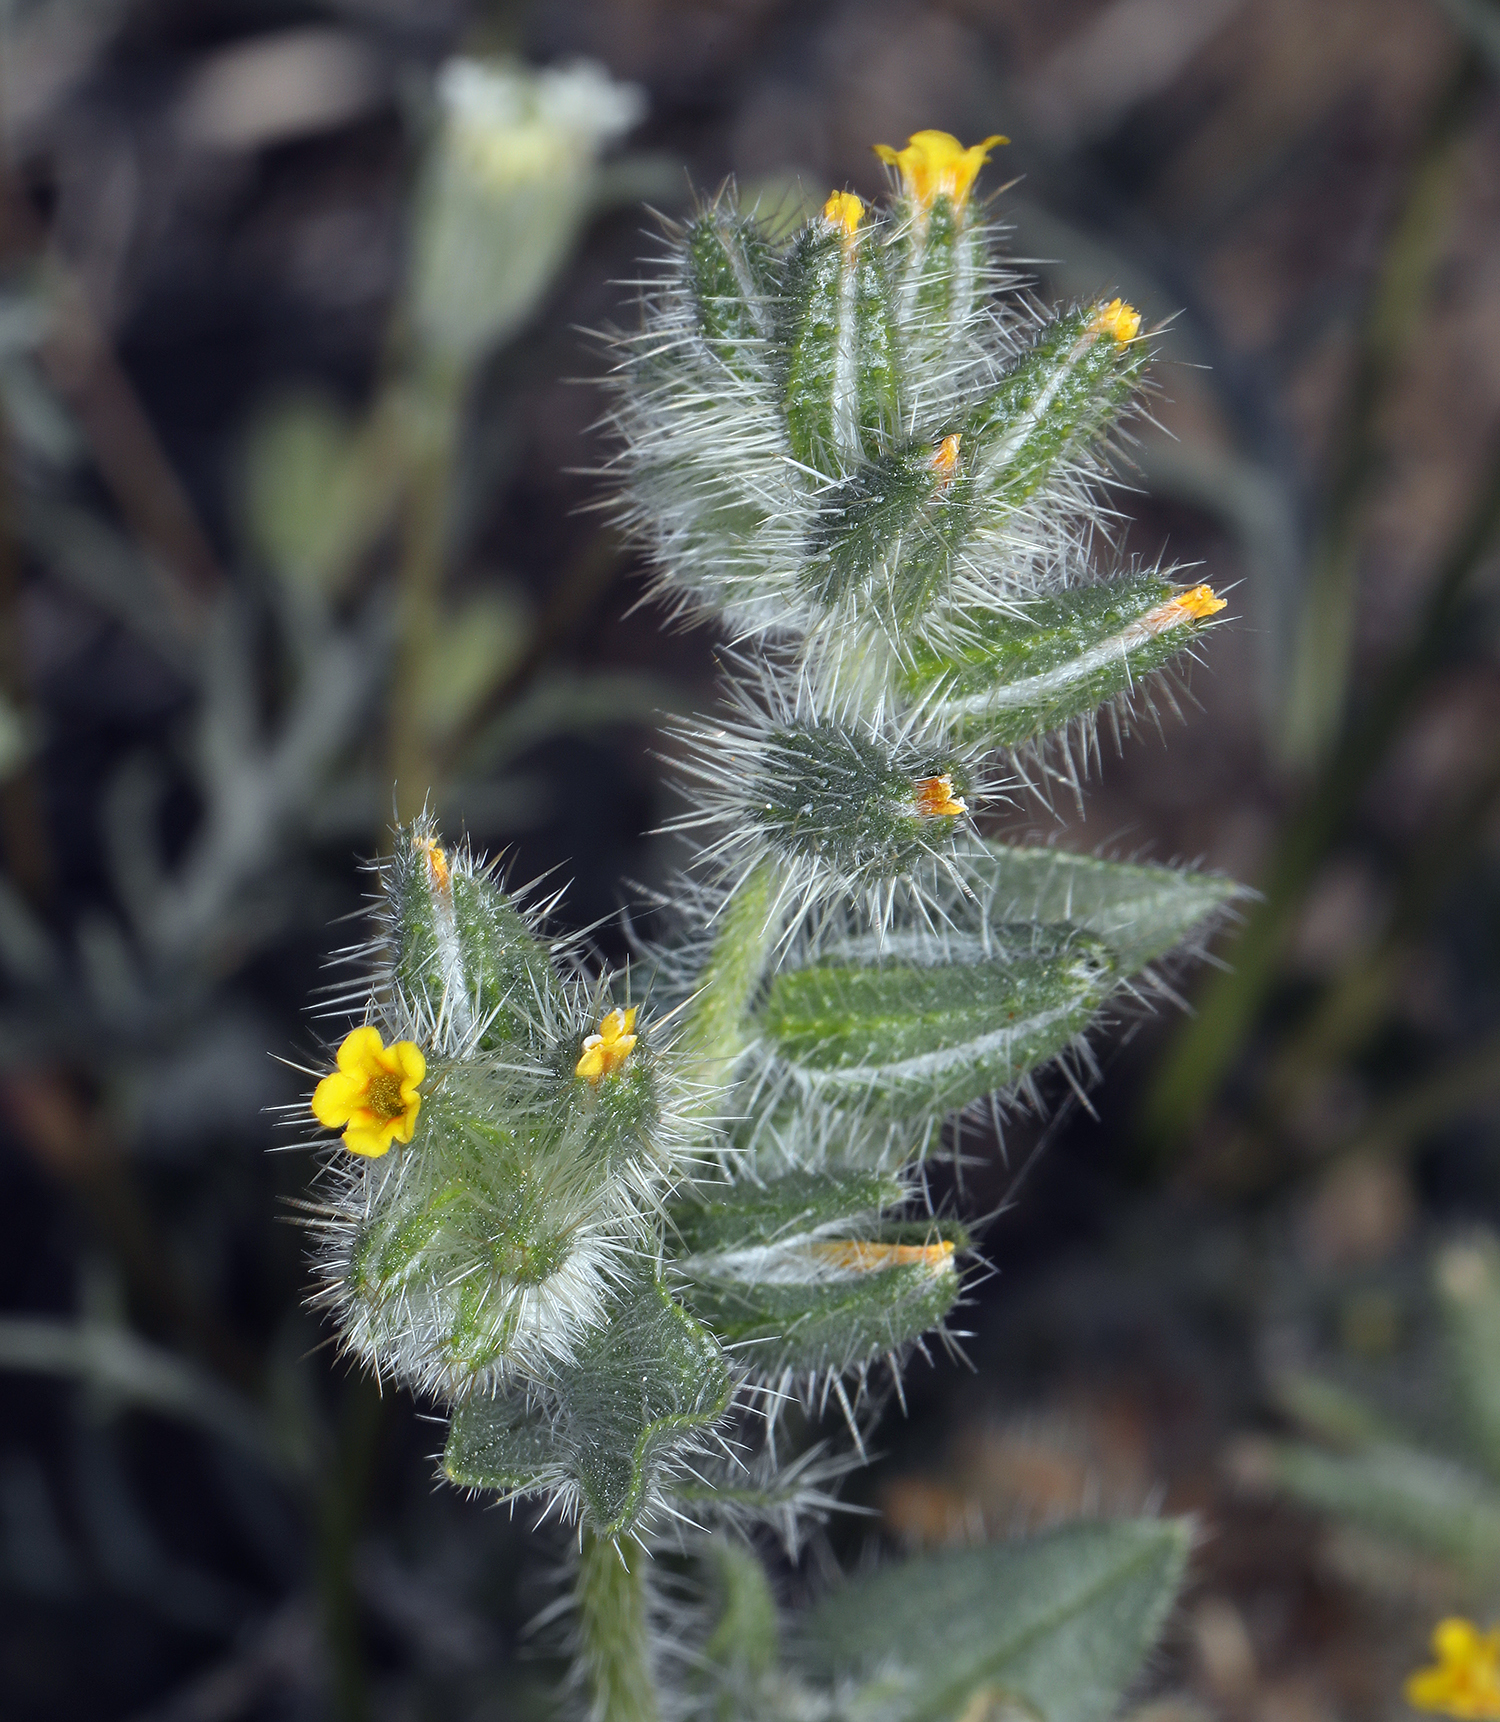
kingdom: Plantae
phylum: Tracheophyta
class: Magnoliopsida
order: Boraginales
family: Boraginaceae
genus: Amsinckia
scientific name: Amsinckia tessellata
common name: Tessellate fiddleneck
